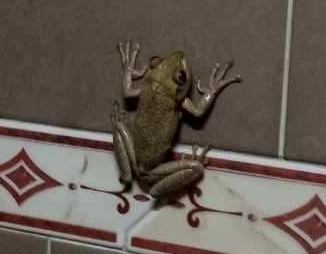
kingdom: Animalia
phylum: Chordata
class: Amphibia
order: Anura
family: Hylidae
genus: Osteopilus
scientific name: Osteopilus septentrionalis
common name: Cuban treefrog
